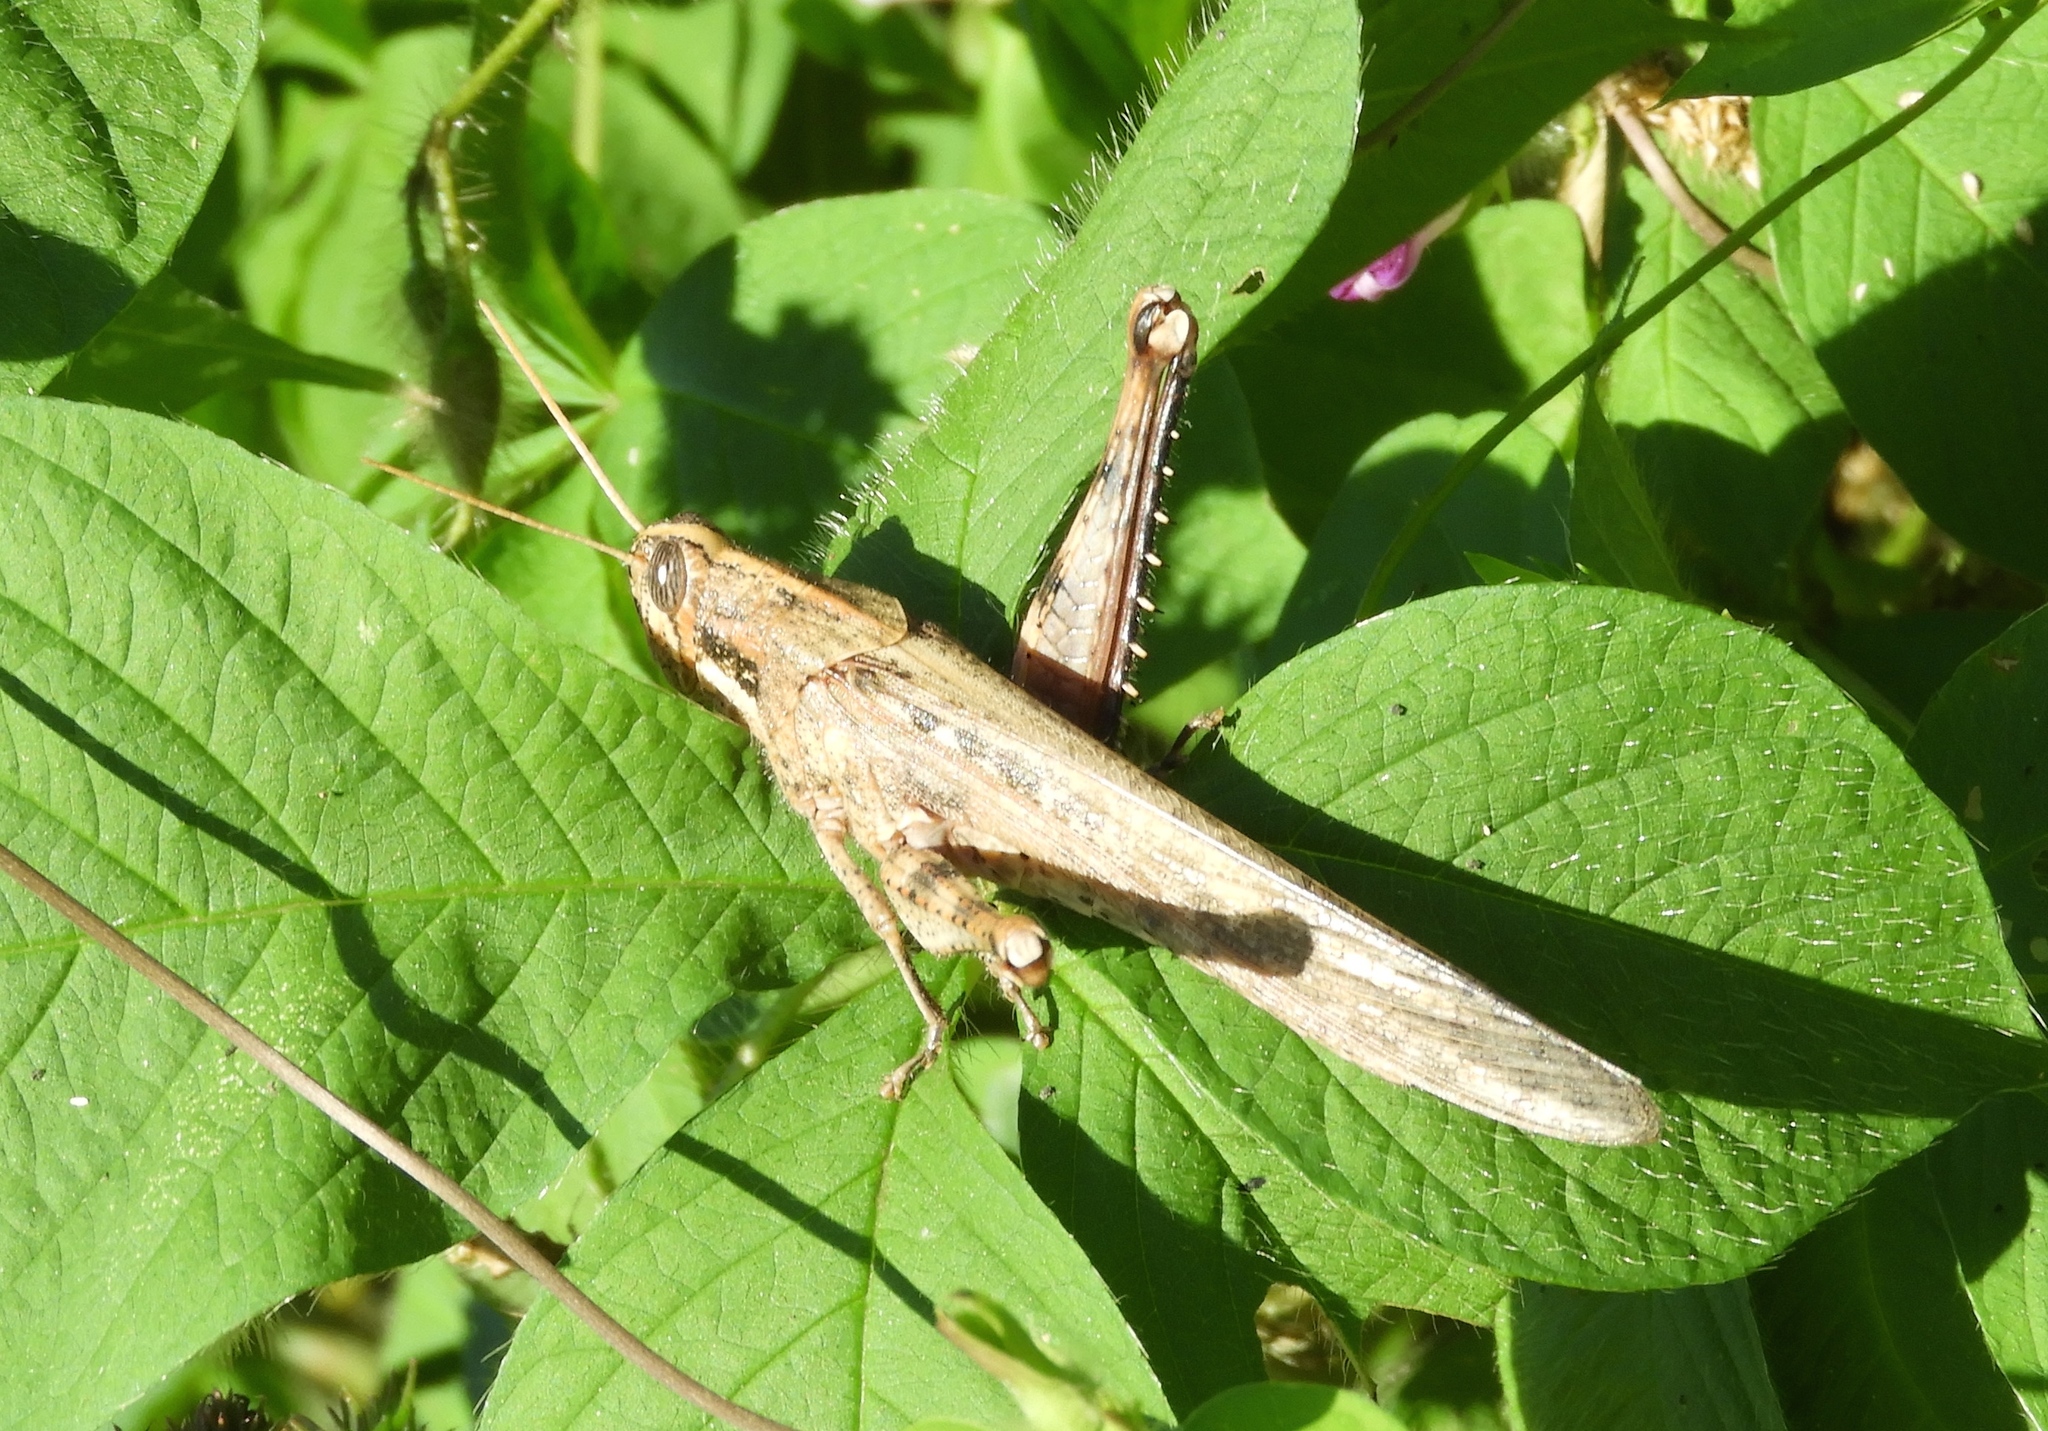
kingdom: Animalia
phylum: Arthropoda
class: Insecta
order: Orthoptera
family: Acrididae
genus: Schistocerca
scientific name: Schistocerca nitens
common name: Vagrant grasshopper
